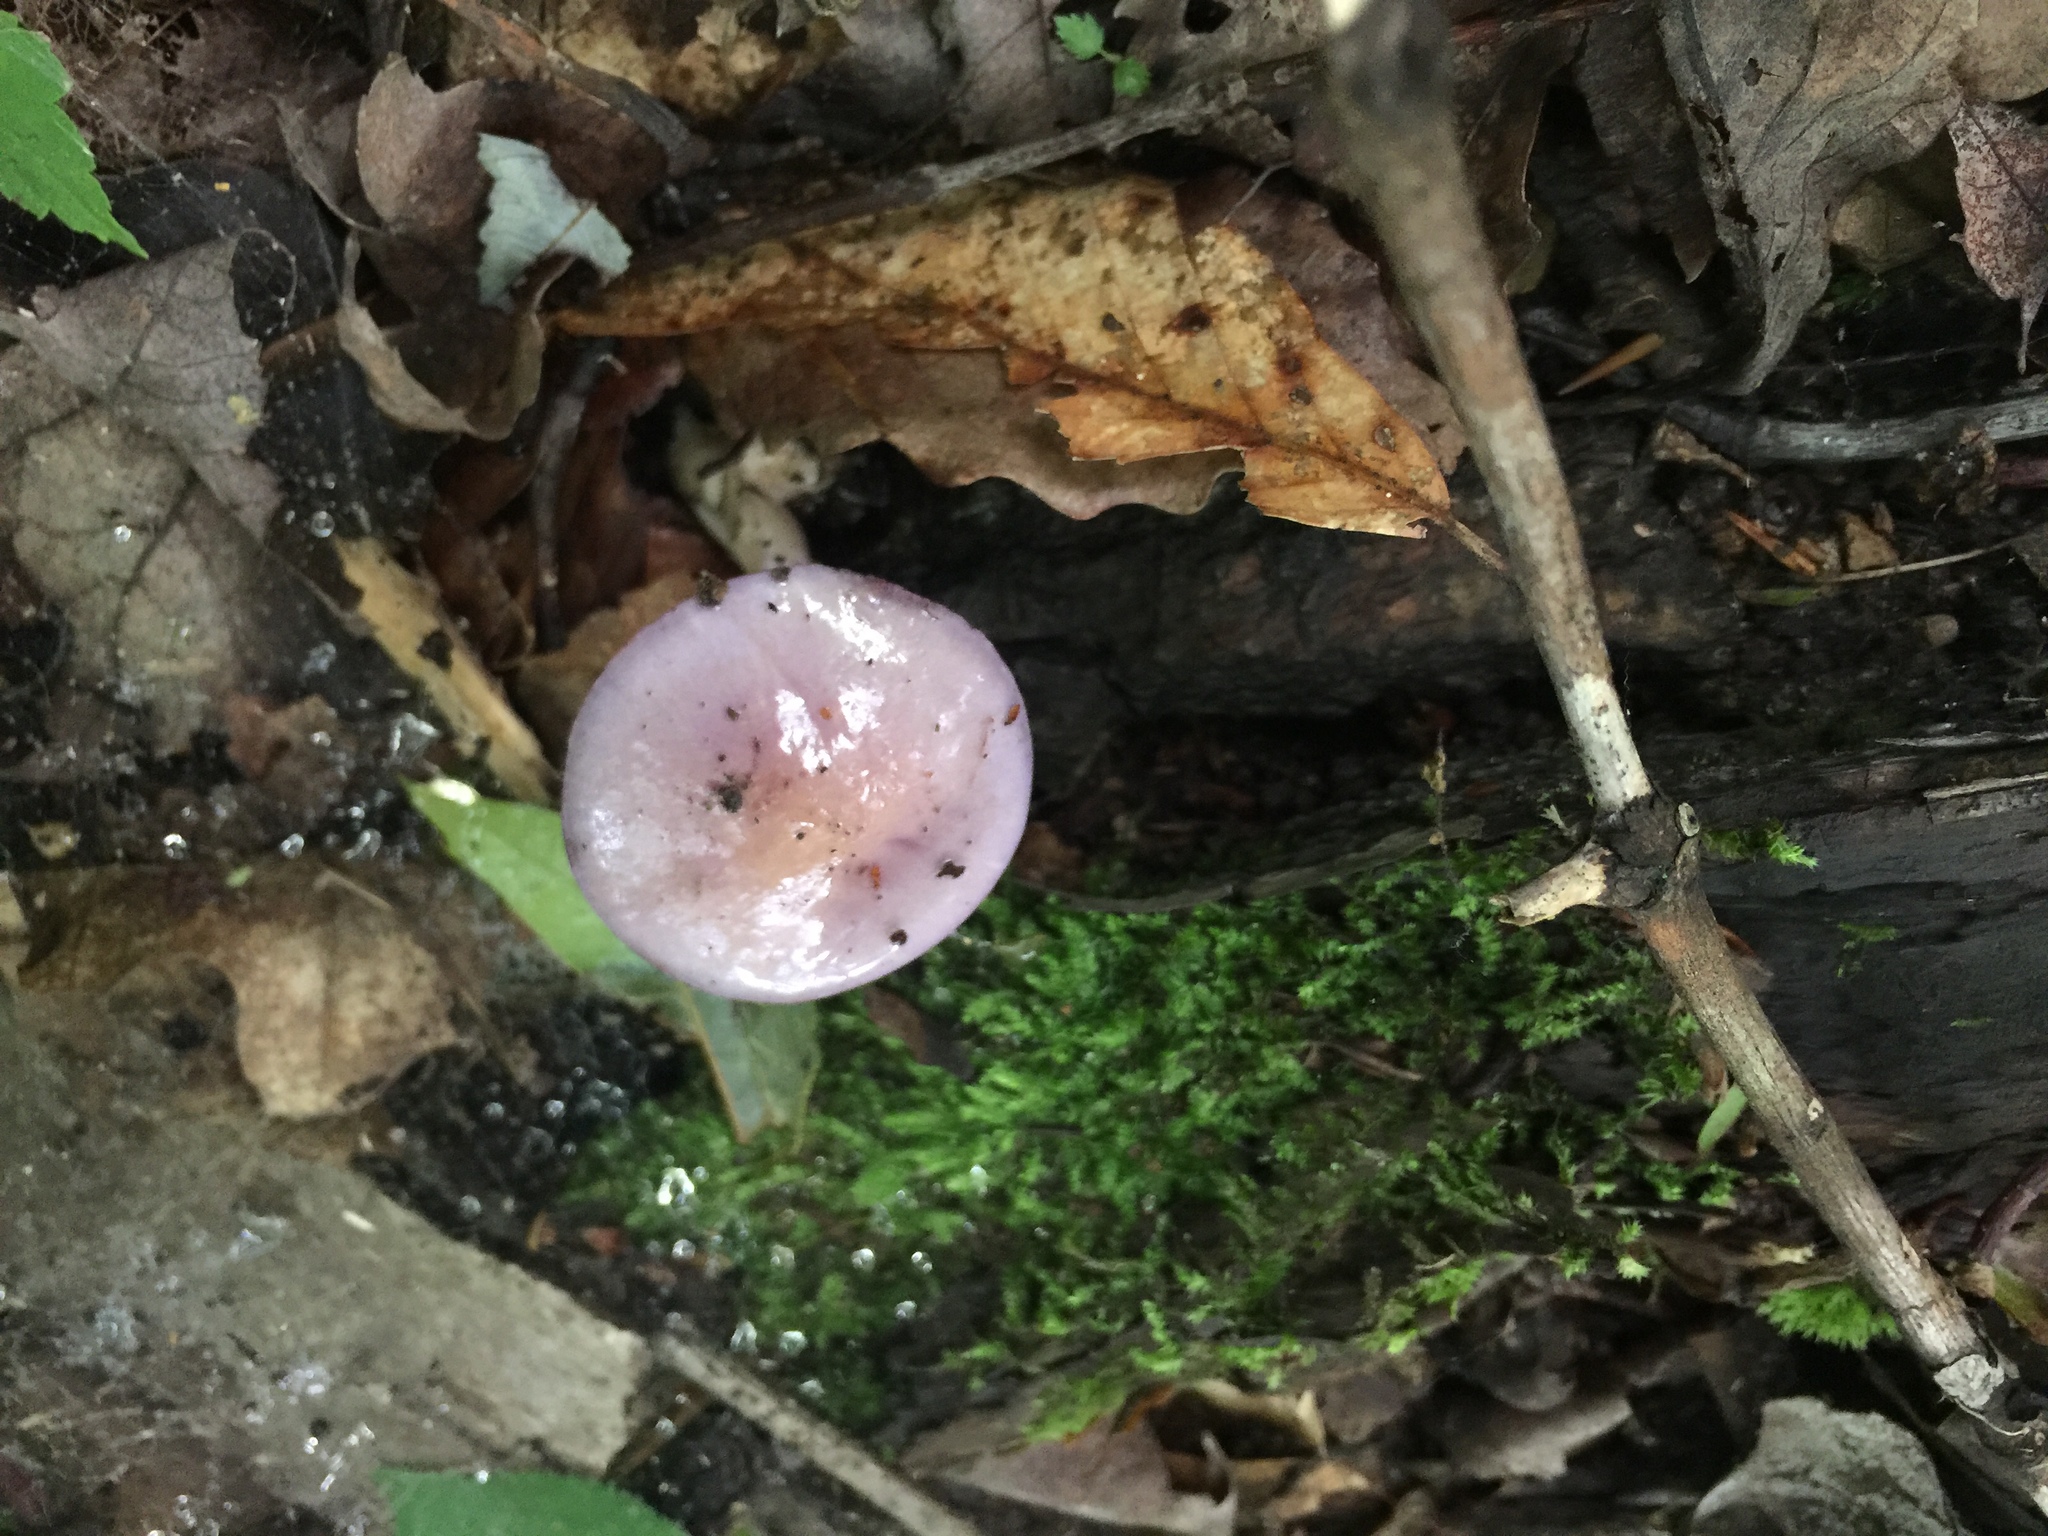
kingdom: Fungi
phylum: Basidiomycota
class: Agaricomycetes
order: Agaricales
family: Cortinariaceae
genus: Cortinarius
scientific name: Cortinarius iodes
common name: Viscid violet cort
